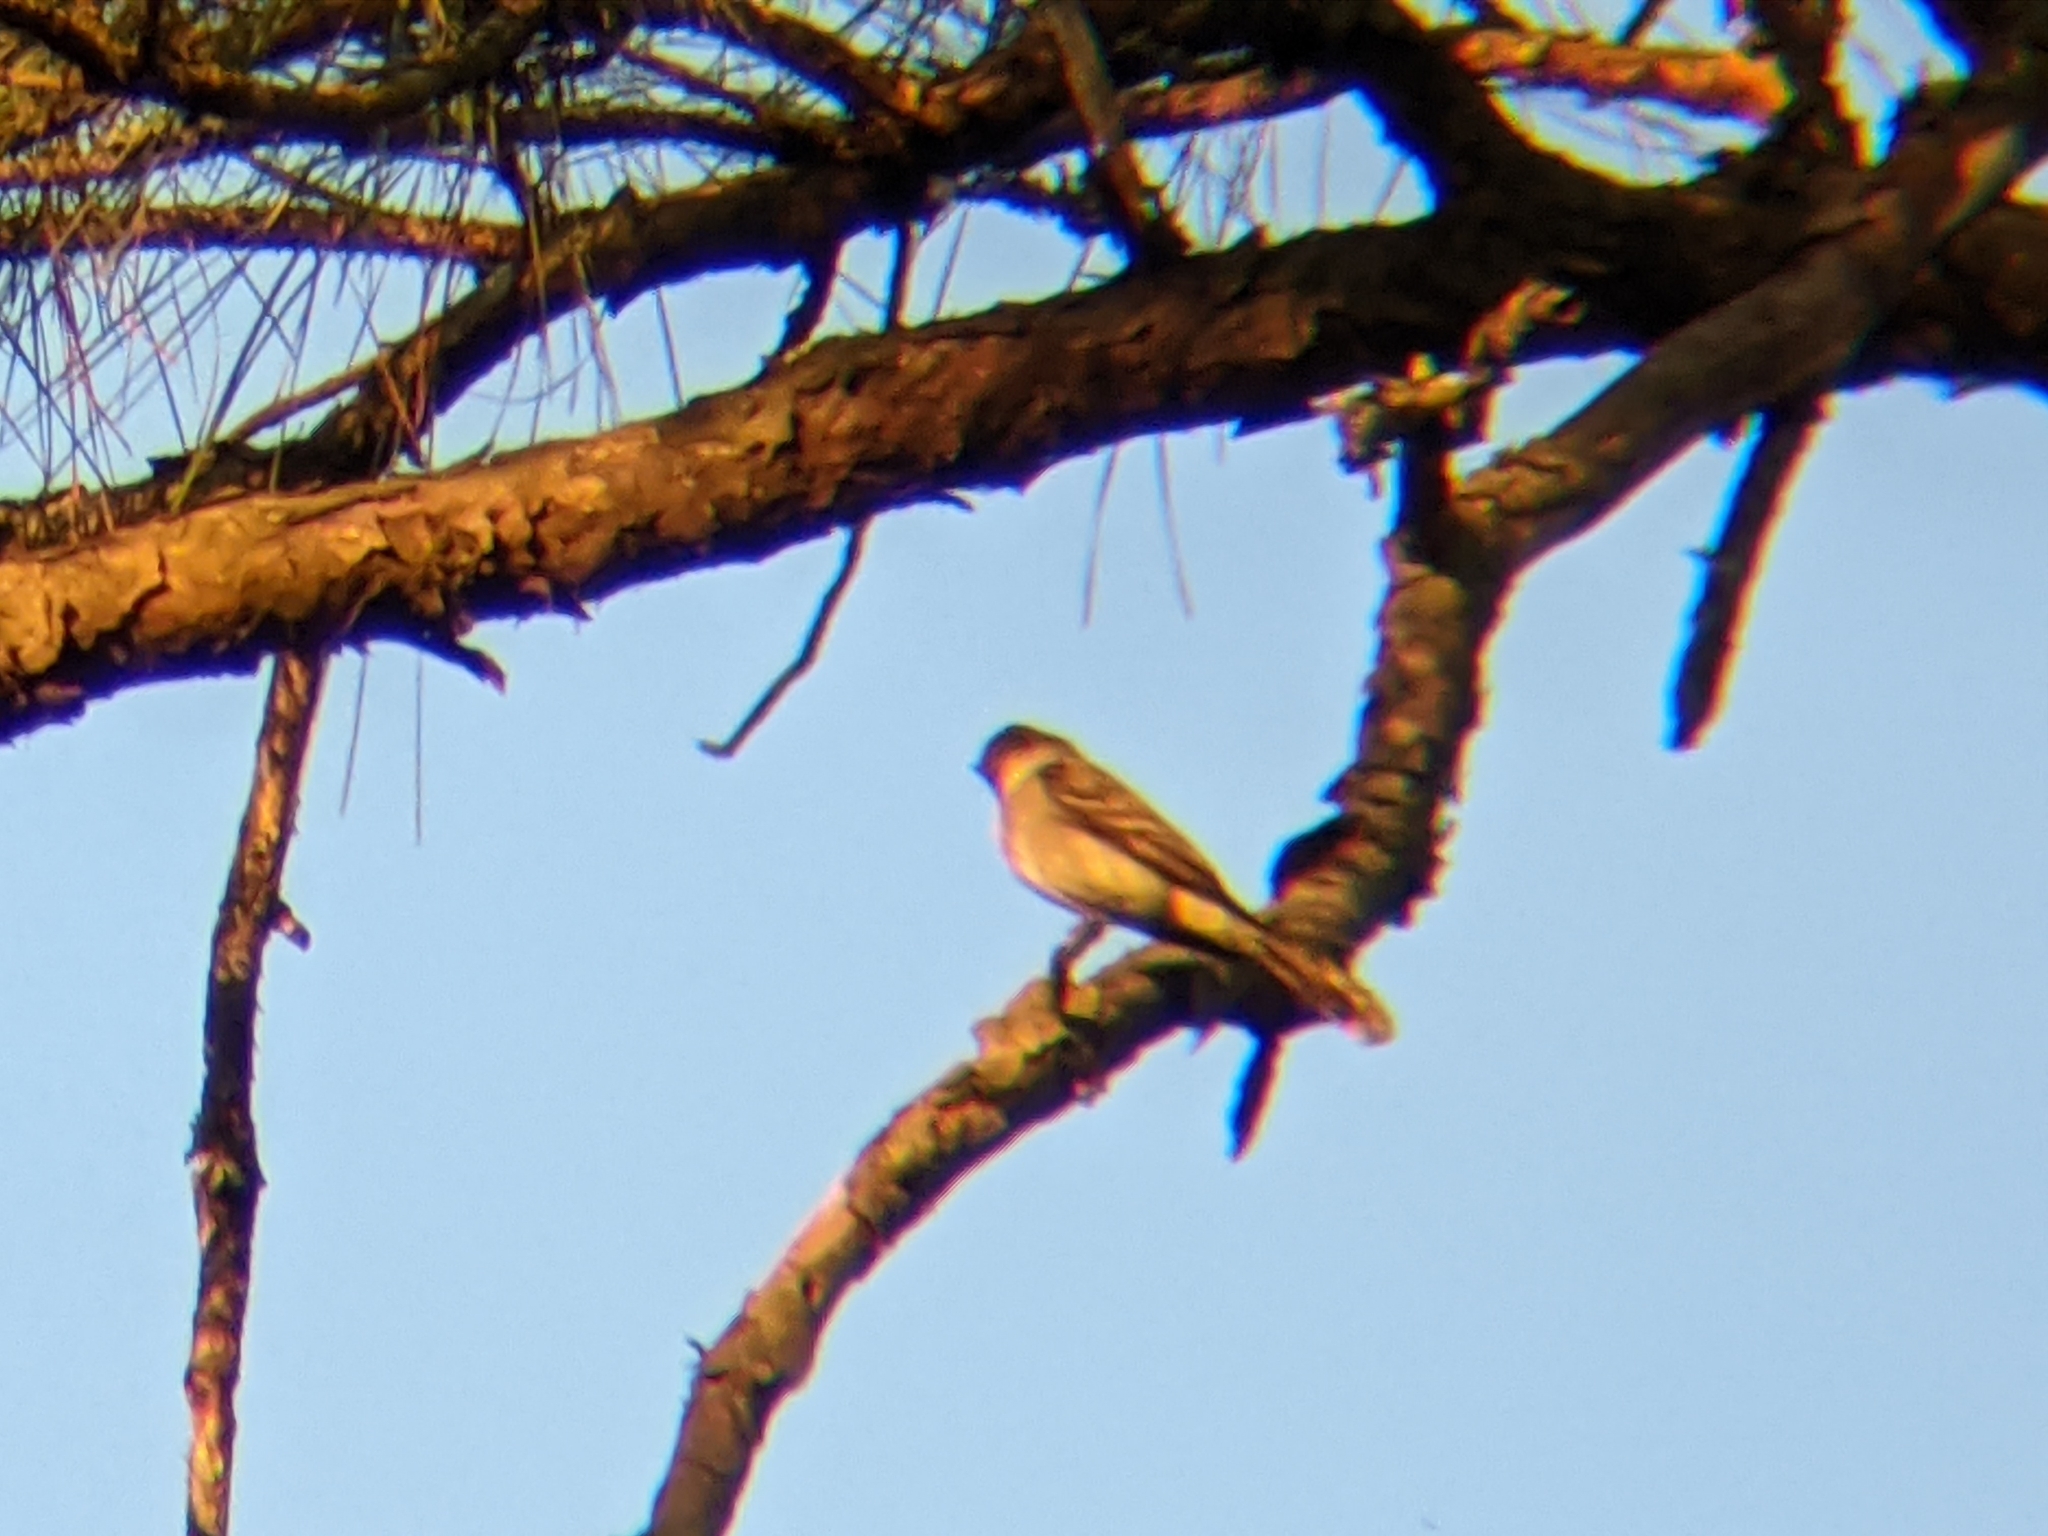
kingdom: Animalia
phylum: Chordata
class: Aves
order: Passeriformes
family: Tyrannidae
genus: Contopus
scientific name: Contopus virens
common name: Eastern wood-pewee
